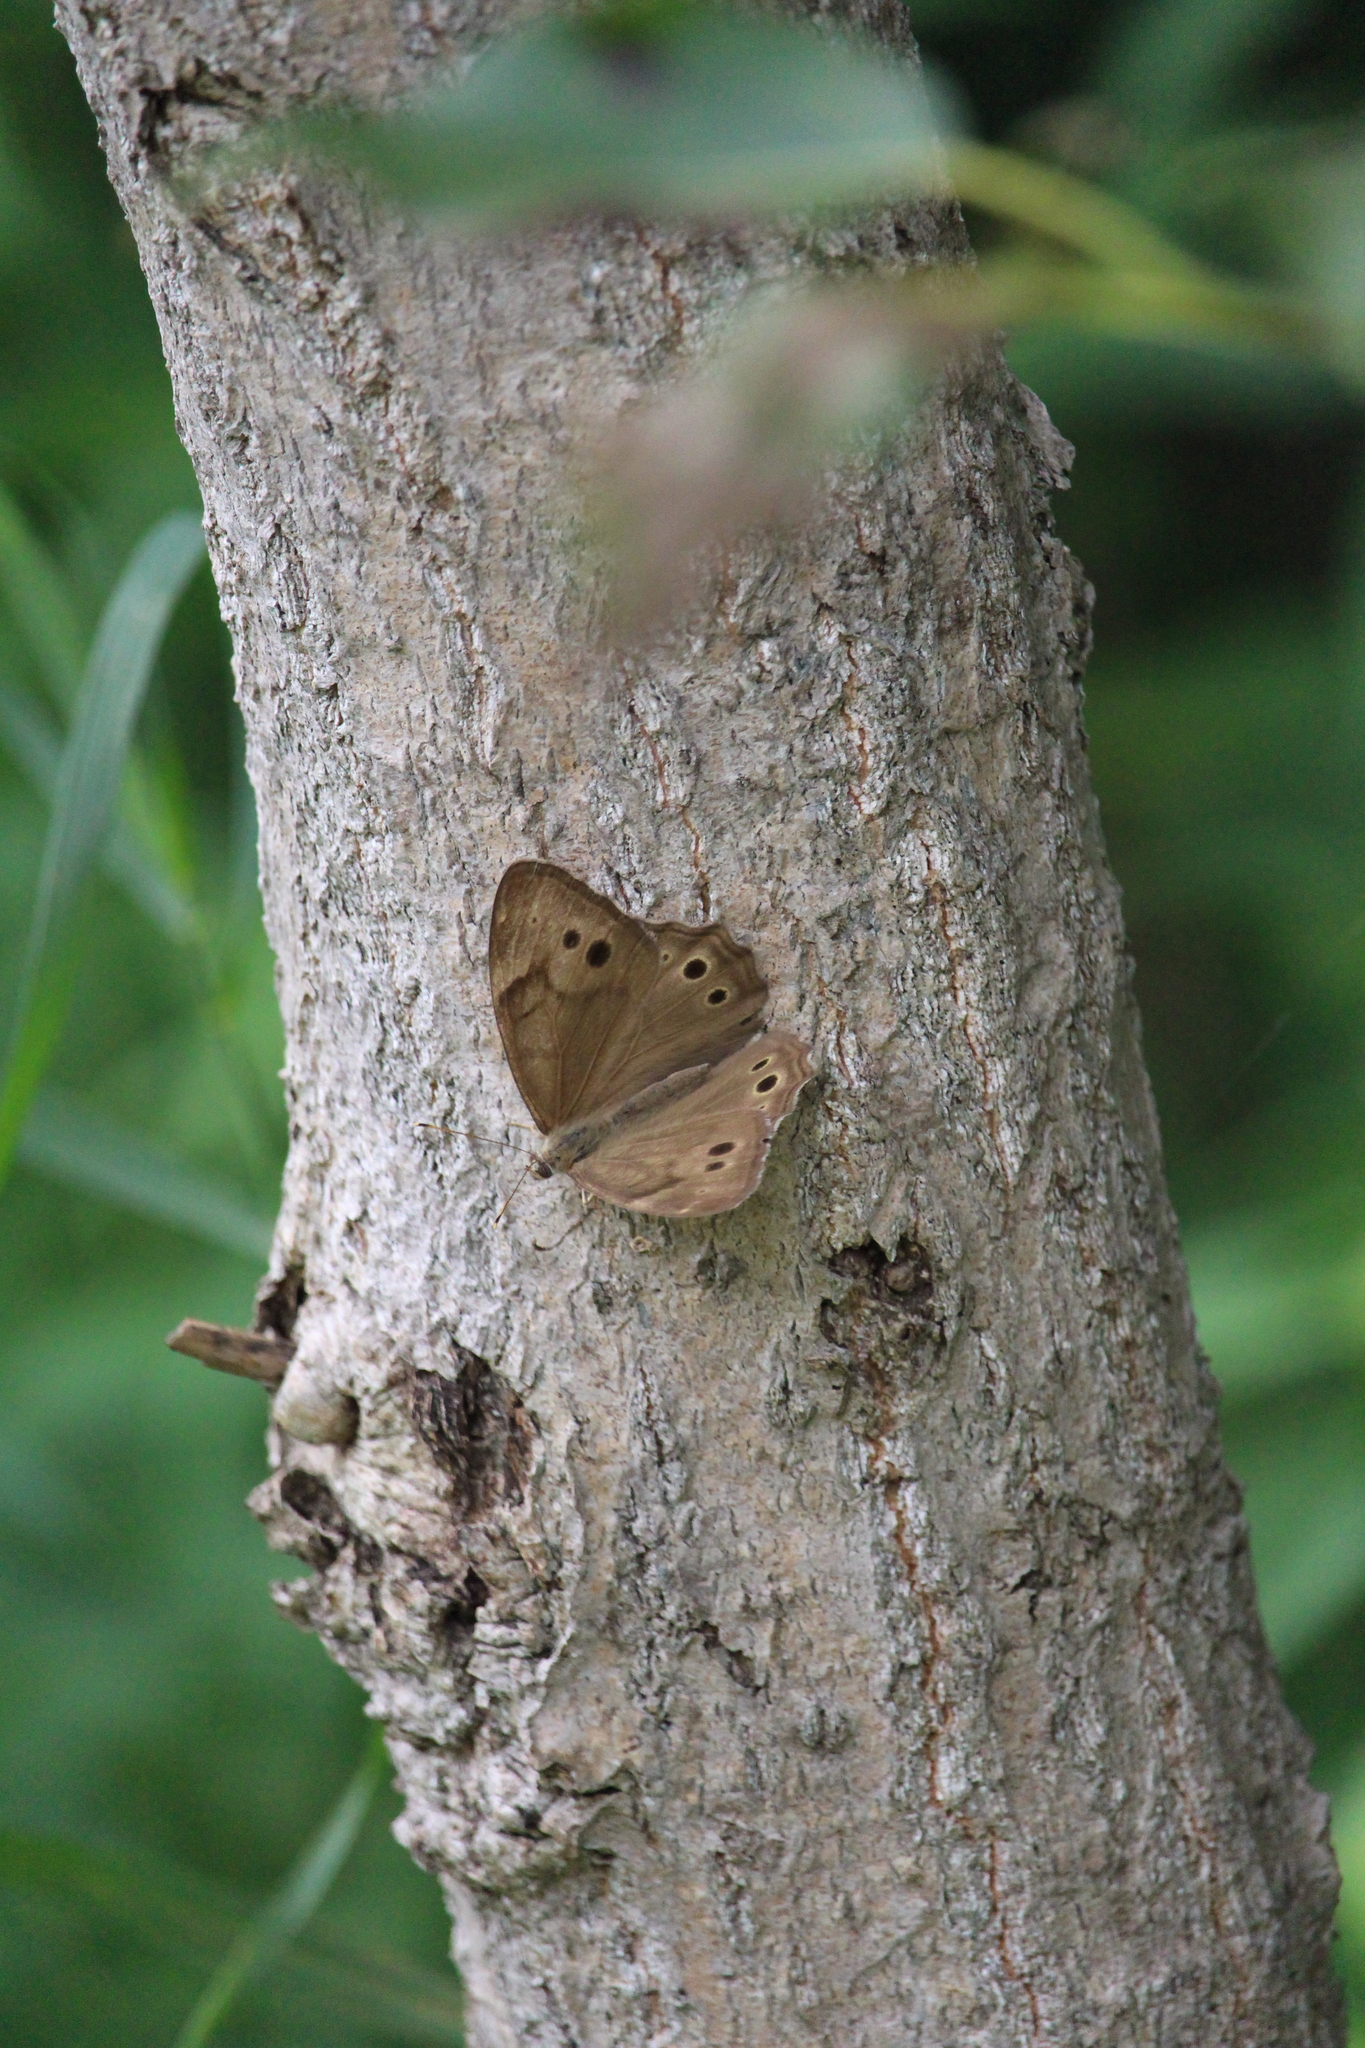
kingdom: Animalia
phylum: Arthropoda
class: Insecta
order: Lepidoptera
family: Nymphalidae
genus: Lethe
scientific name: Lethe anthedon
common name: Northern pearly-eye
